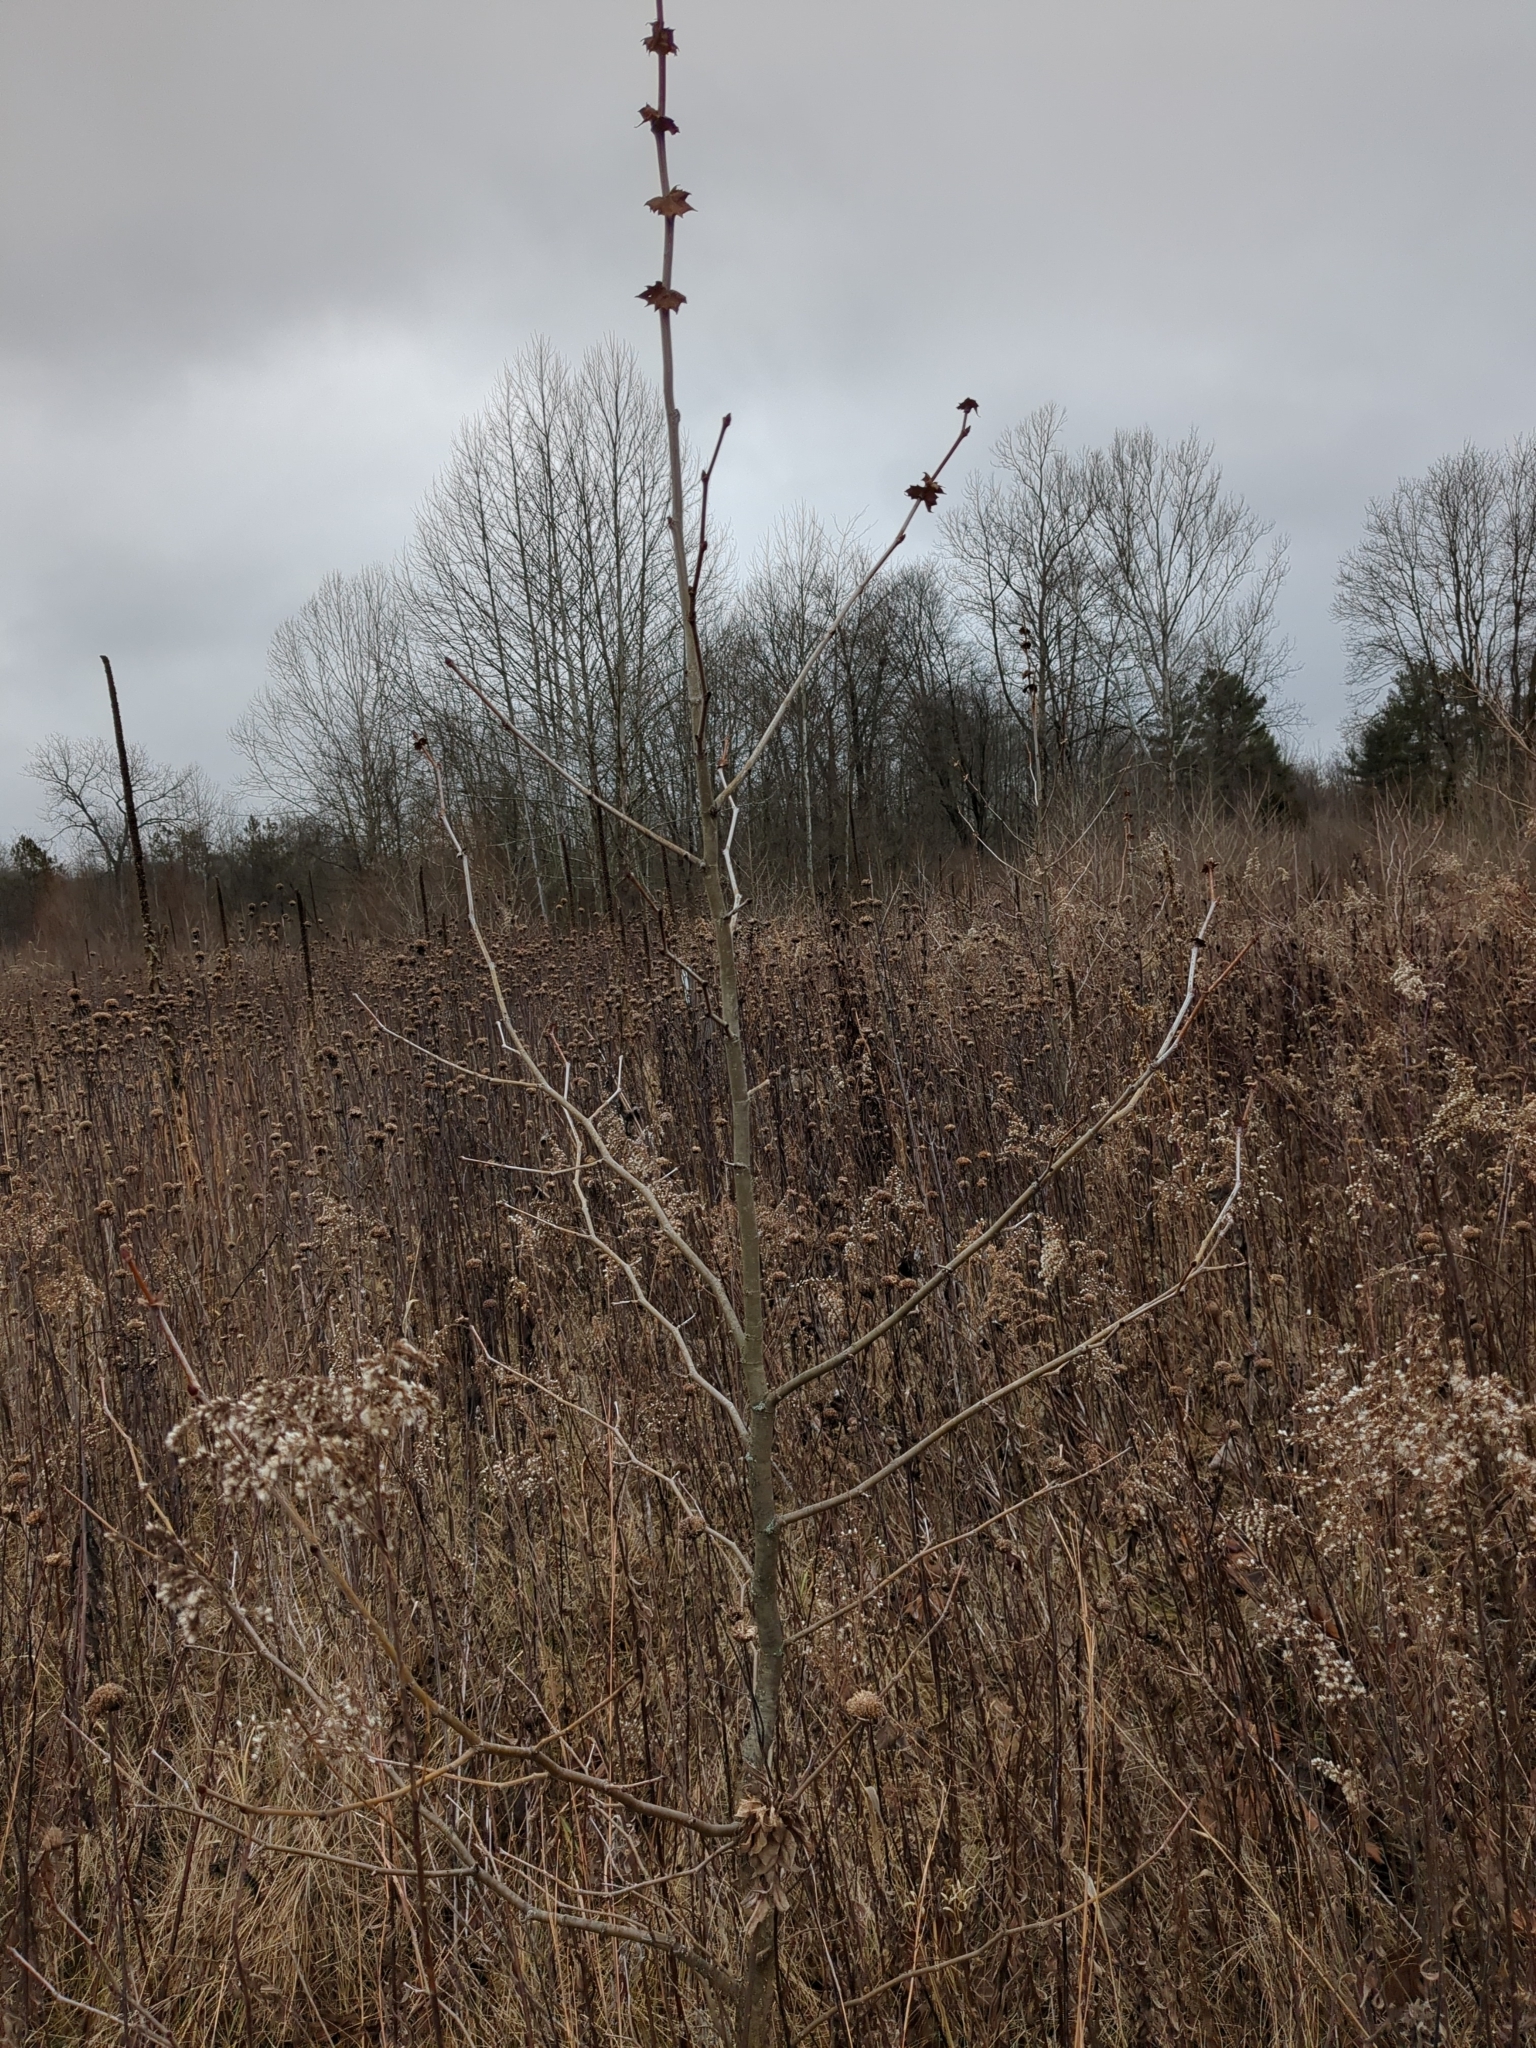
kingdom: Plantae
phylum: Tracheophyta
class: Magnoliopsida
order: Proteales
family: Platanaceae
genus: Platanus
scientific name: Platanus occidentalis
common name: American sycamore
